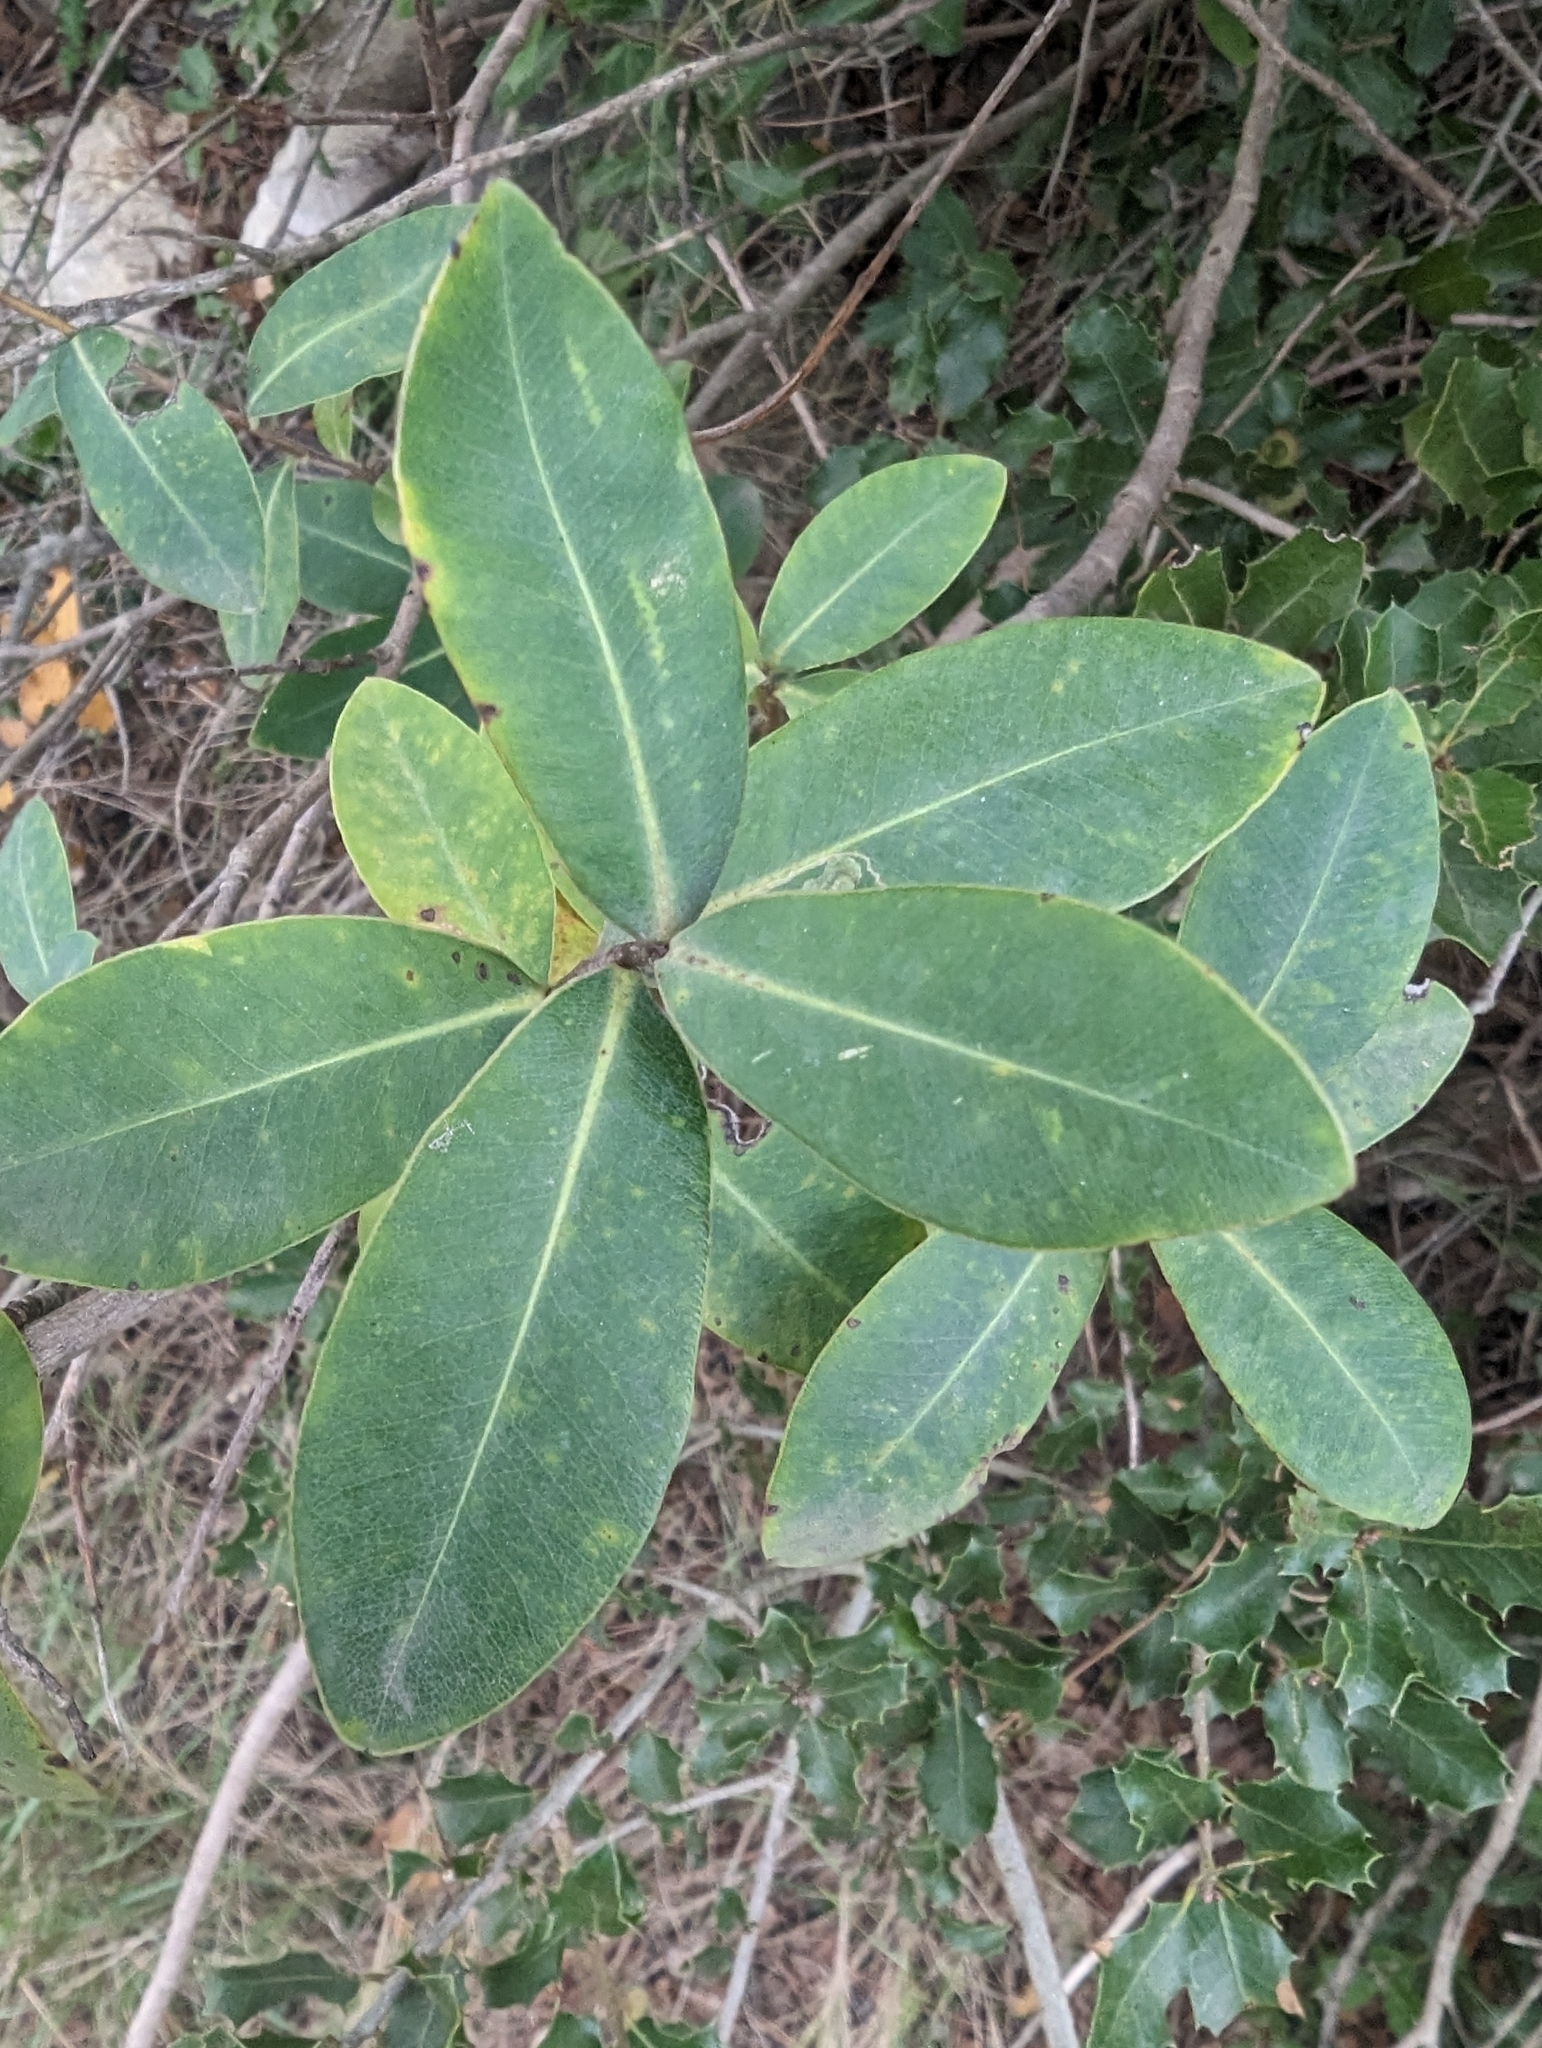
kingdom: Plantae
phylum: Tracheophyta
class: Magnoliopsida
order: Apiales
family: Apiaceae
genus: Bupleurum
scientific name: Bupleurum fruticosum
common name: Shrubby hare's-ear
